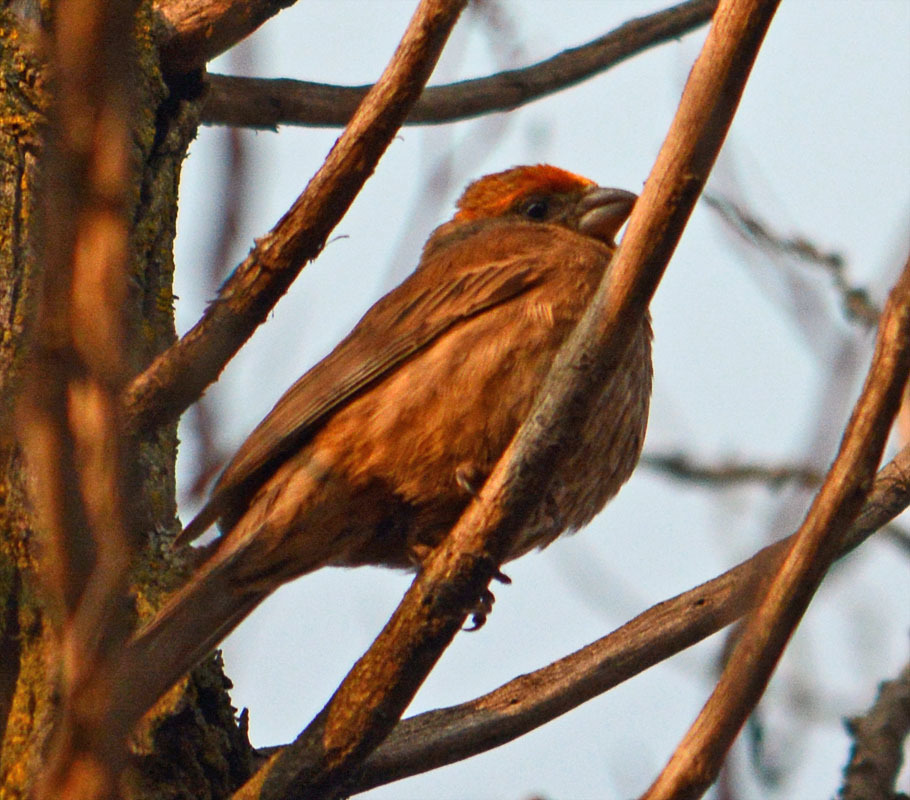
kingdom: Animalia
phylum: Chordata
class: Aves
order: Passeriformes
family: Fringillidae
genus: Haemorhous
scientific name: Haemorhous mexicanus
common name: House finch
